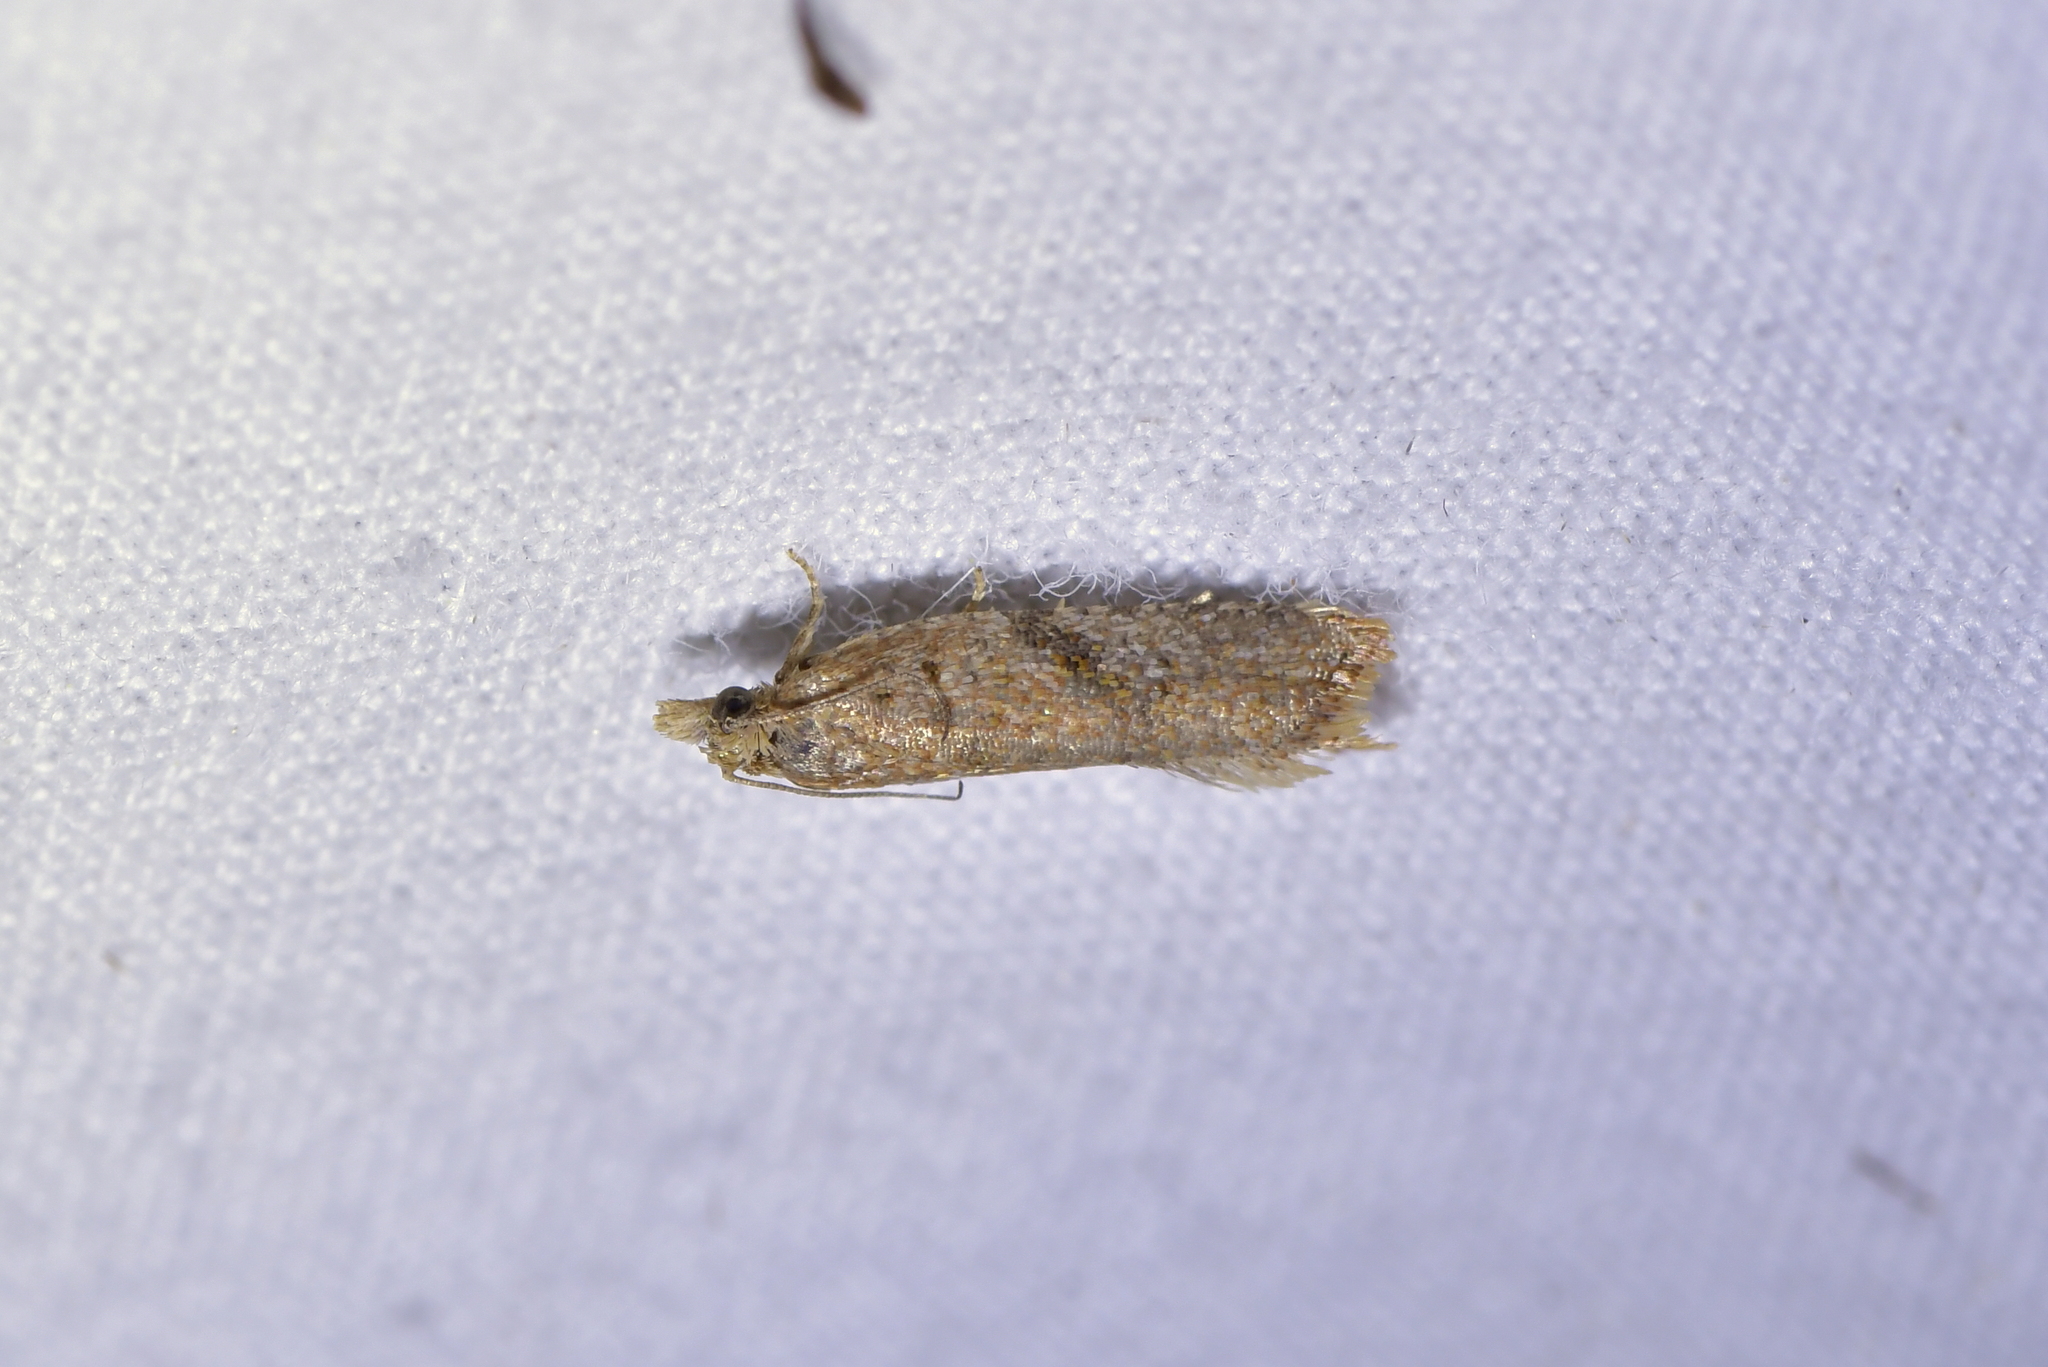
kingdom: Animalia
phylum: Arthropoda
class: Insecta
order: Lepidoptera
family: Tortricidae
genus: Capua
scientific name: Capua semiferana
